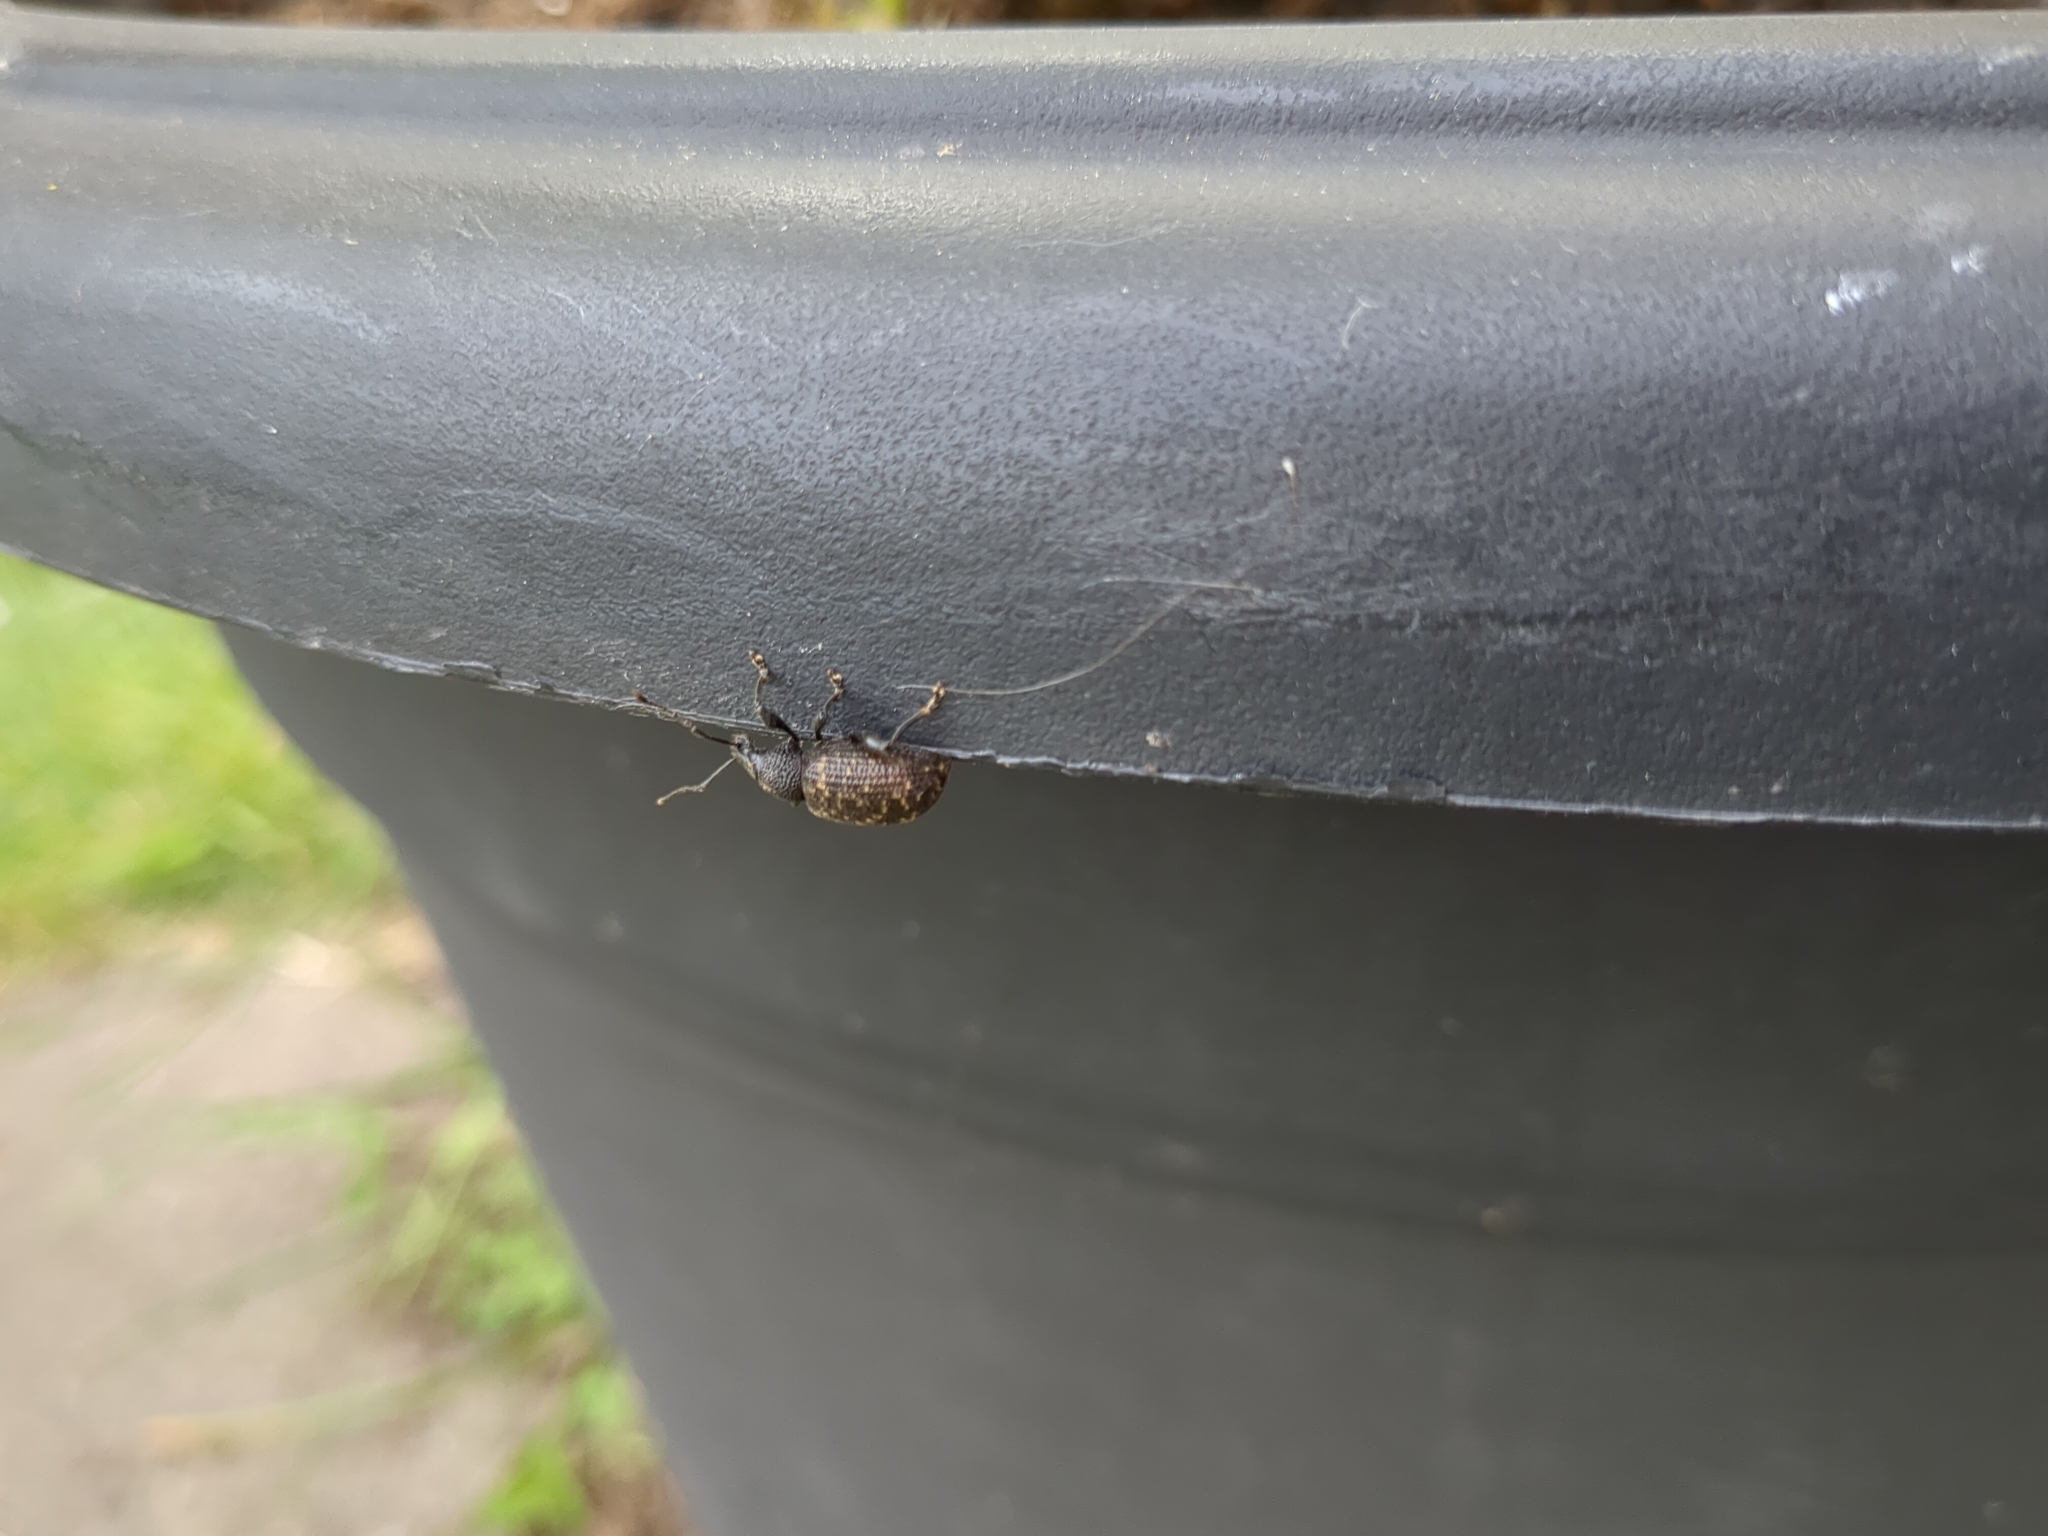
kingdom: Animalia
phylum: Arthropoda
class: Insecta
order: Coleoptera
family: Curculionidae
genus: Otiorhynchus
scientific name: Otiorhynchus sulcatus
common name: Black vine weevil
